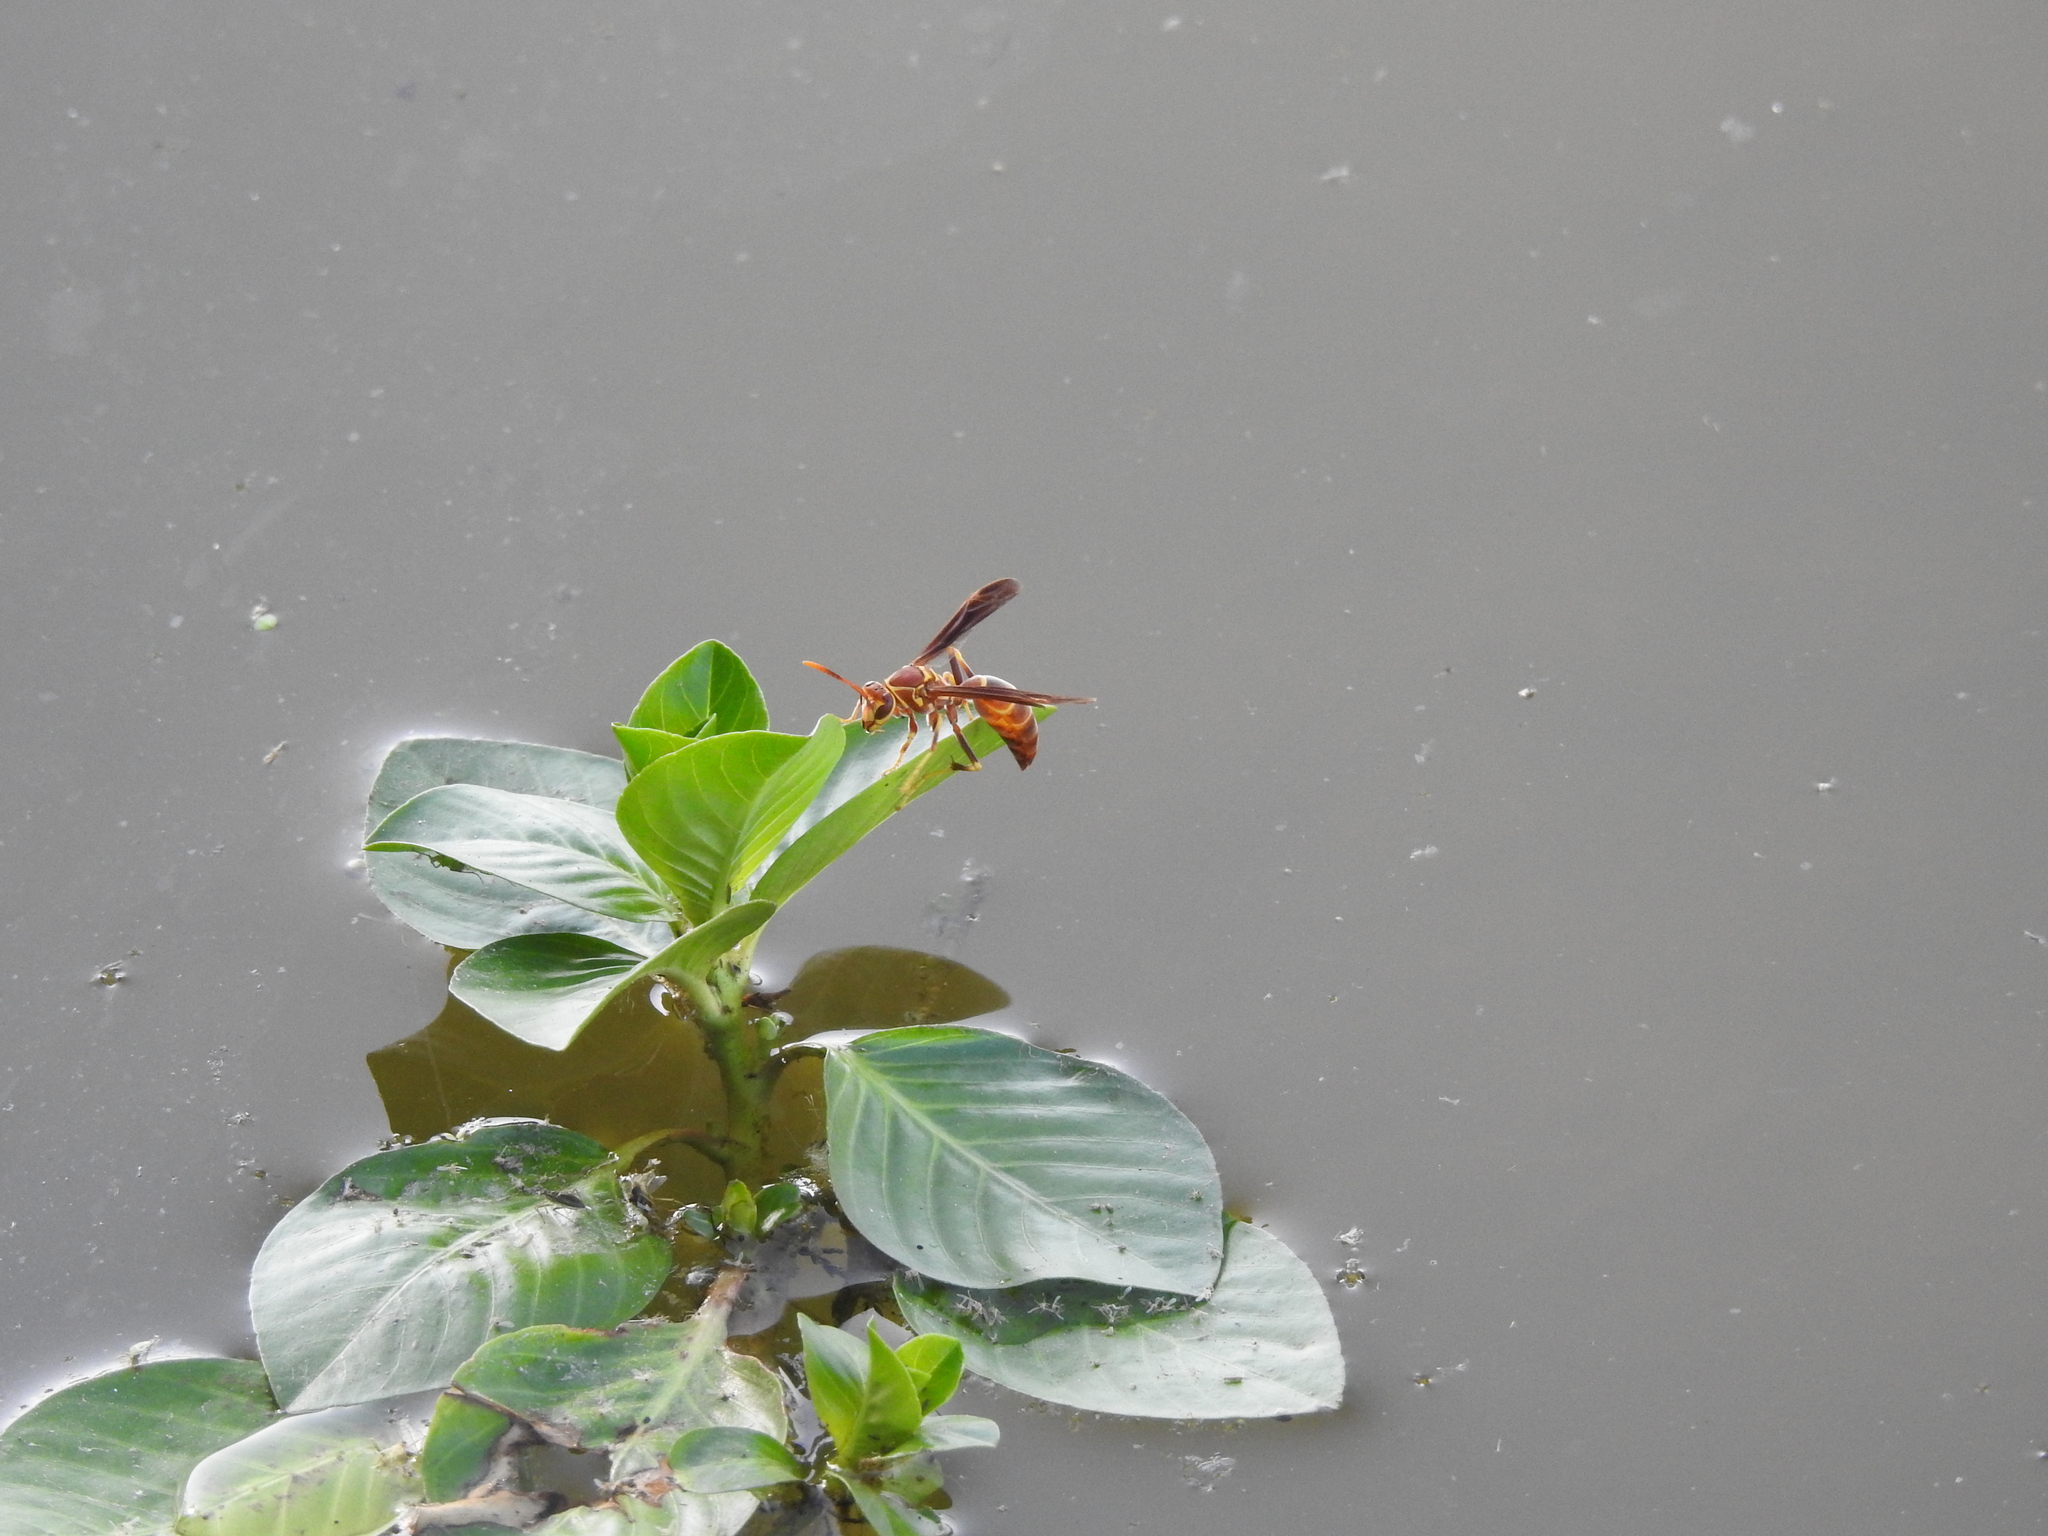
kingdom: Animalia
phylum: Arthropoda
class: Insecta
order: Hymenoptera
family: Eumenidae
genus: Polistes
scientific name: Polistes arizonensis
